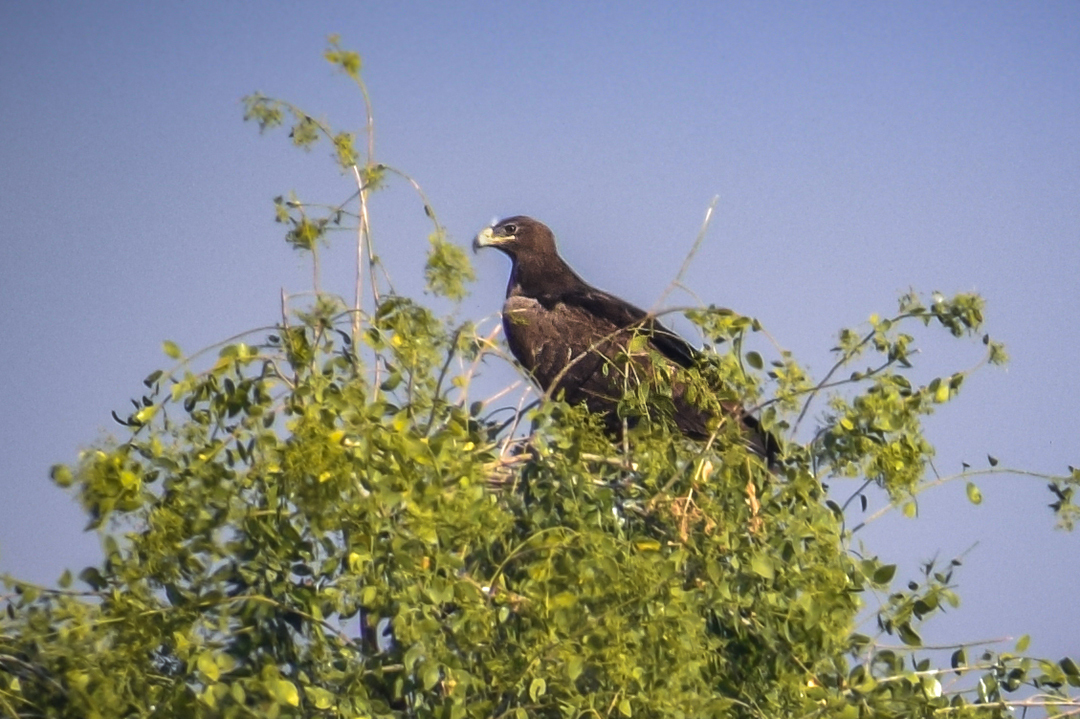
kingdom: Animalia
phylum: Chordata
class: Aves
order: Accipitriformes
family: Accipitridae
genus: Aquila
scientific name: Aquila rapax
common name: Tawny eagle
